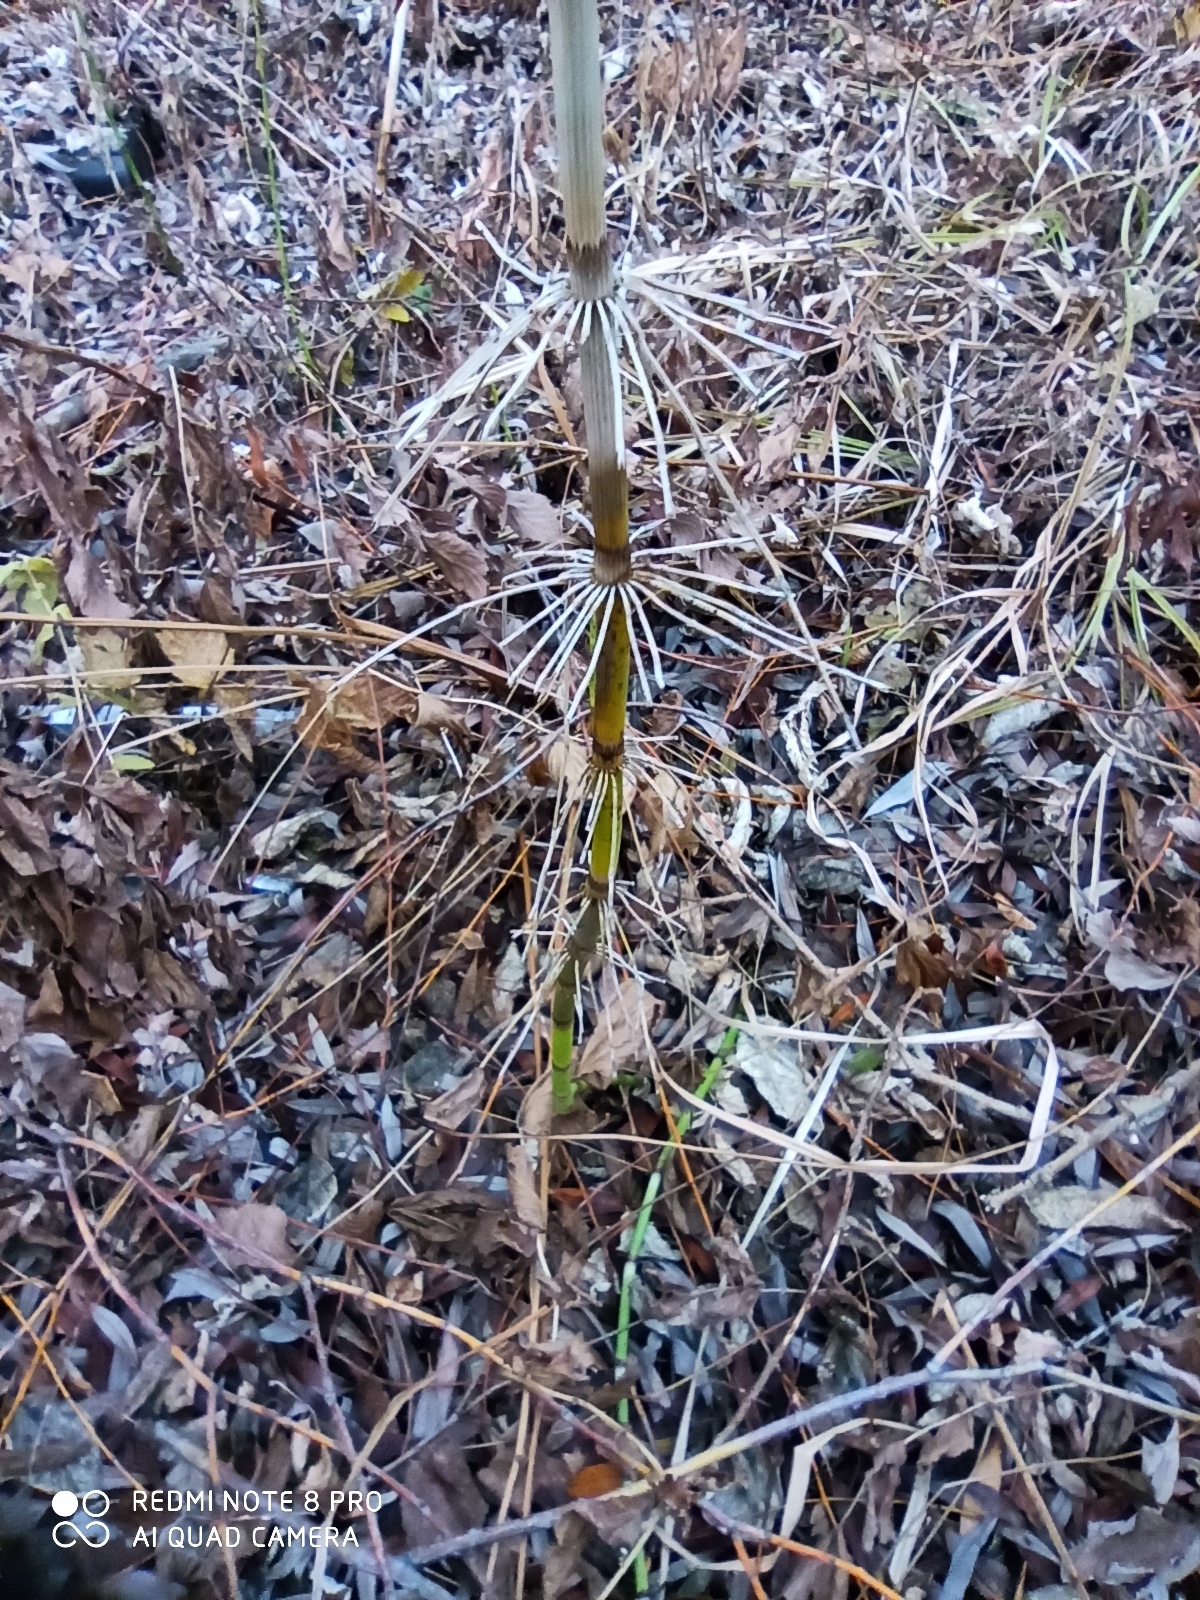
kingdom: Plantae
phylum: Tracheophyta
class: Polypodiopsida
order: Equisetales
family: Equisetaceae
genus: Equisetum
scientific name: Equisetum fluviatile
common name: Water horsetail
